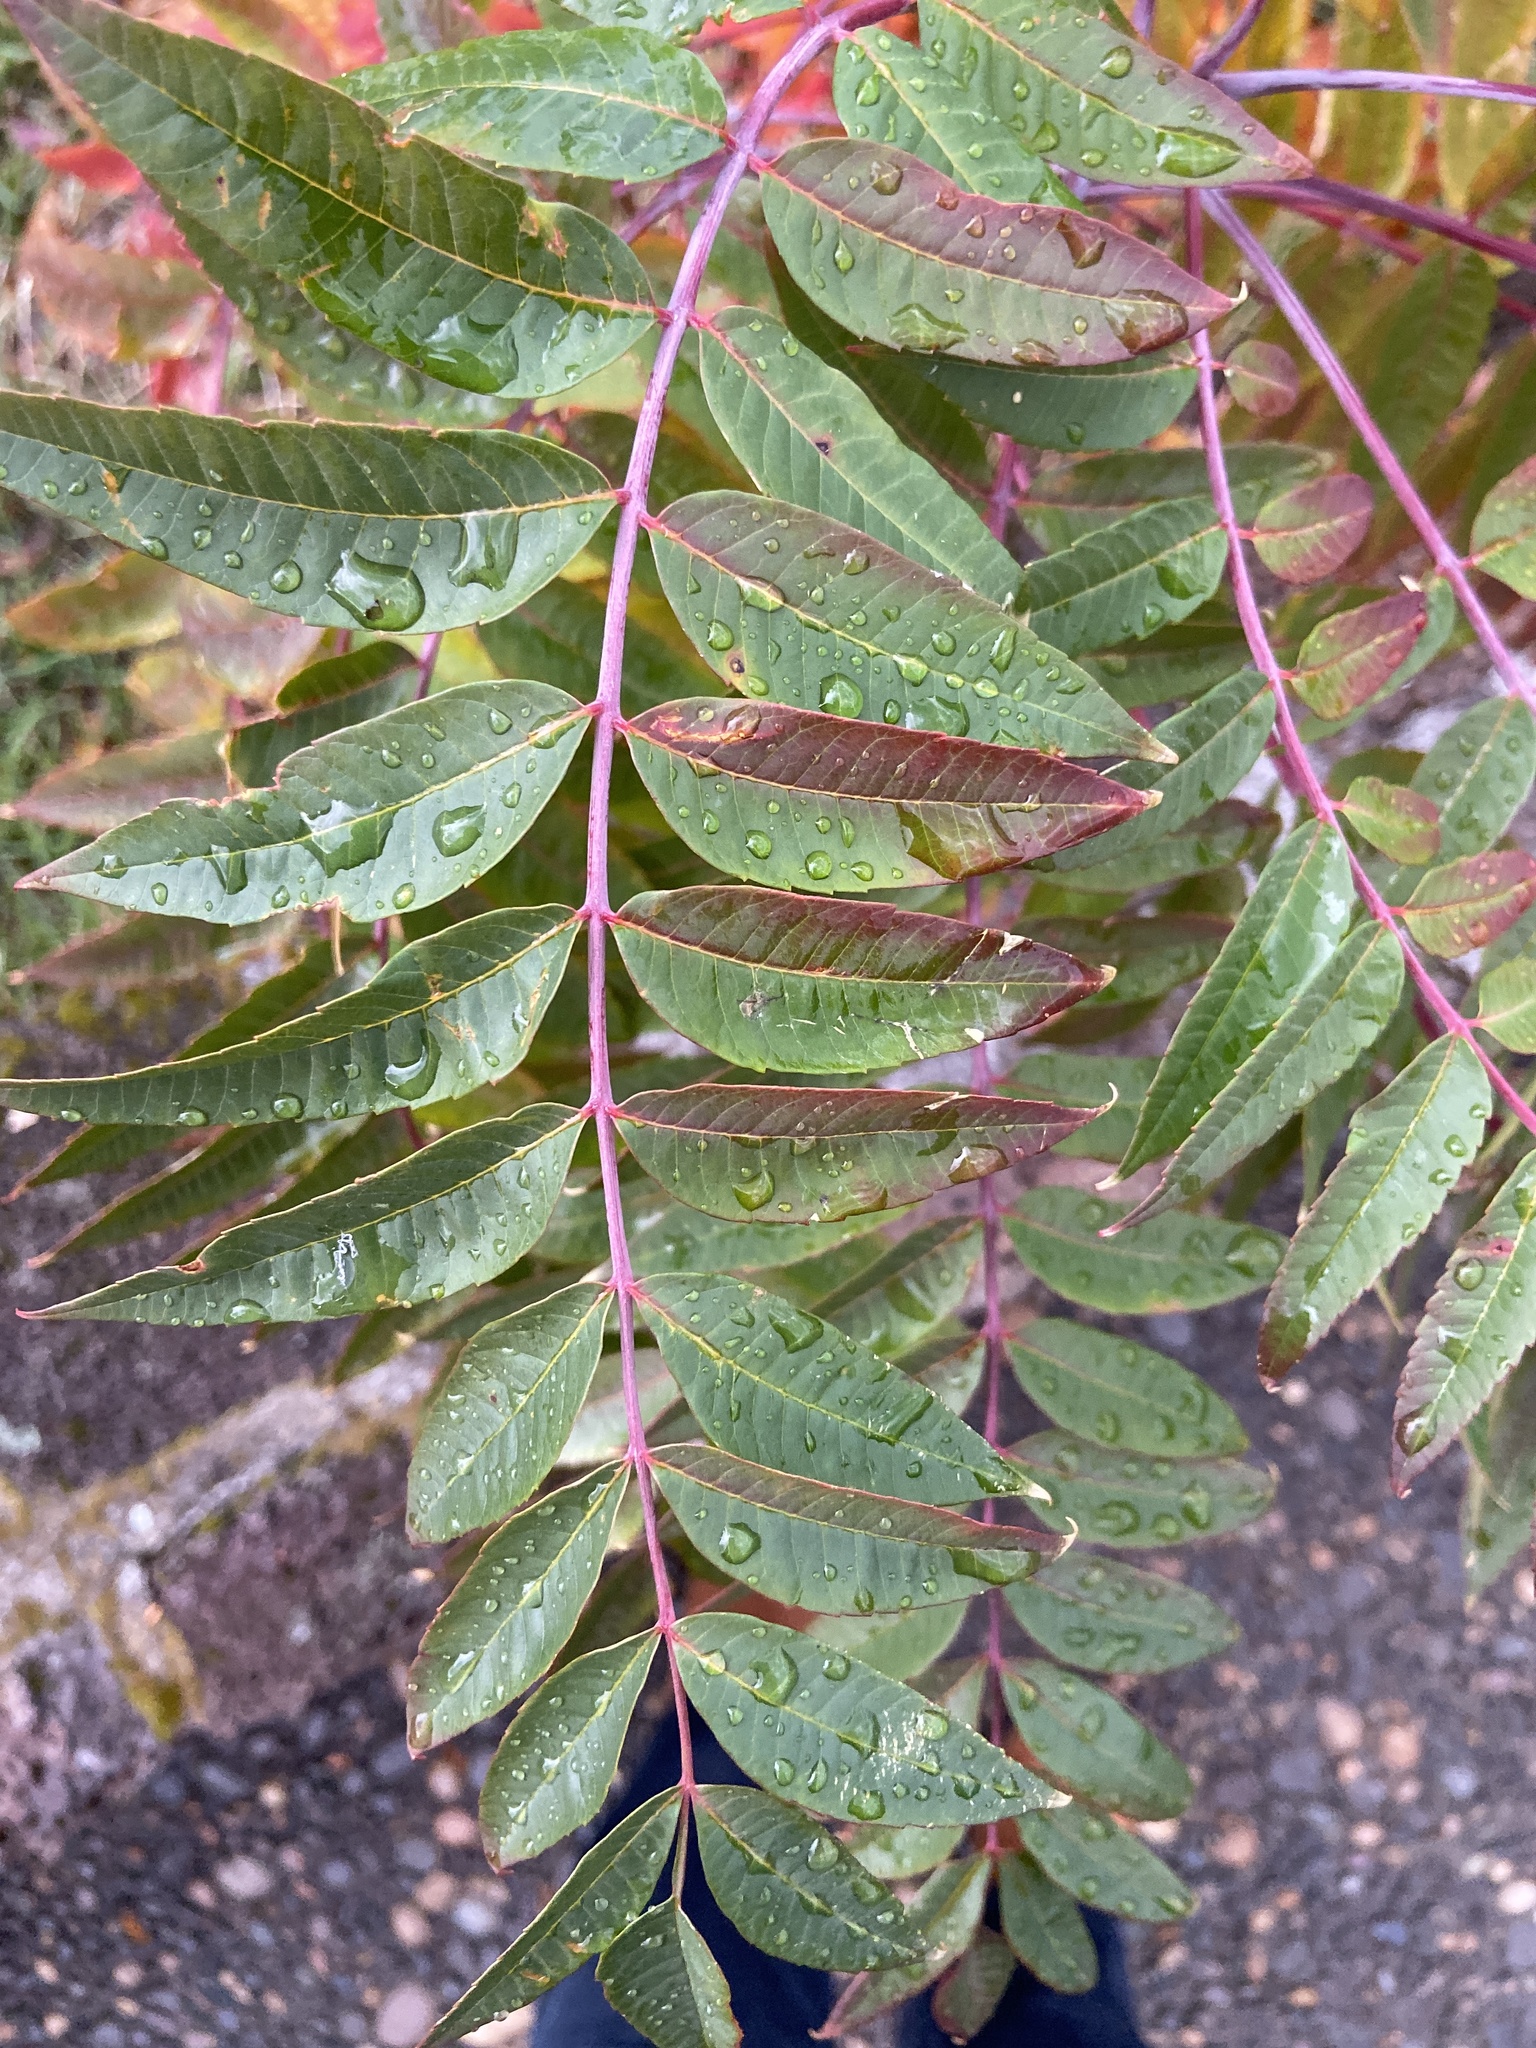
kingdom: Plantae
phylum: Tracheophyta
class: Magnoliopsida
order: Sapindales
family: Anacardiaceae
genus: Rhus
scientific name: Rhus glabra
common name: Scarlet sumac
